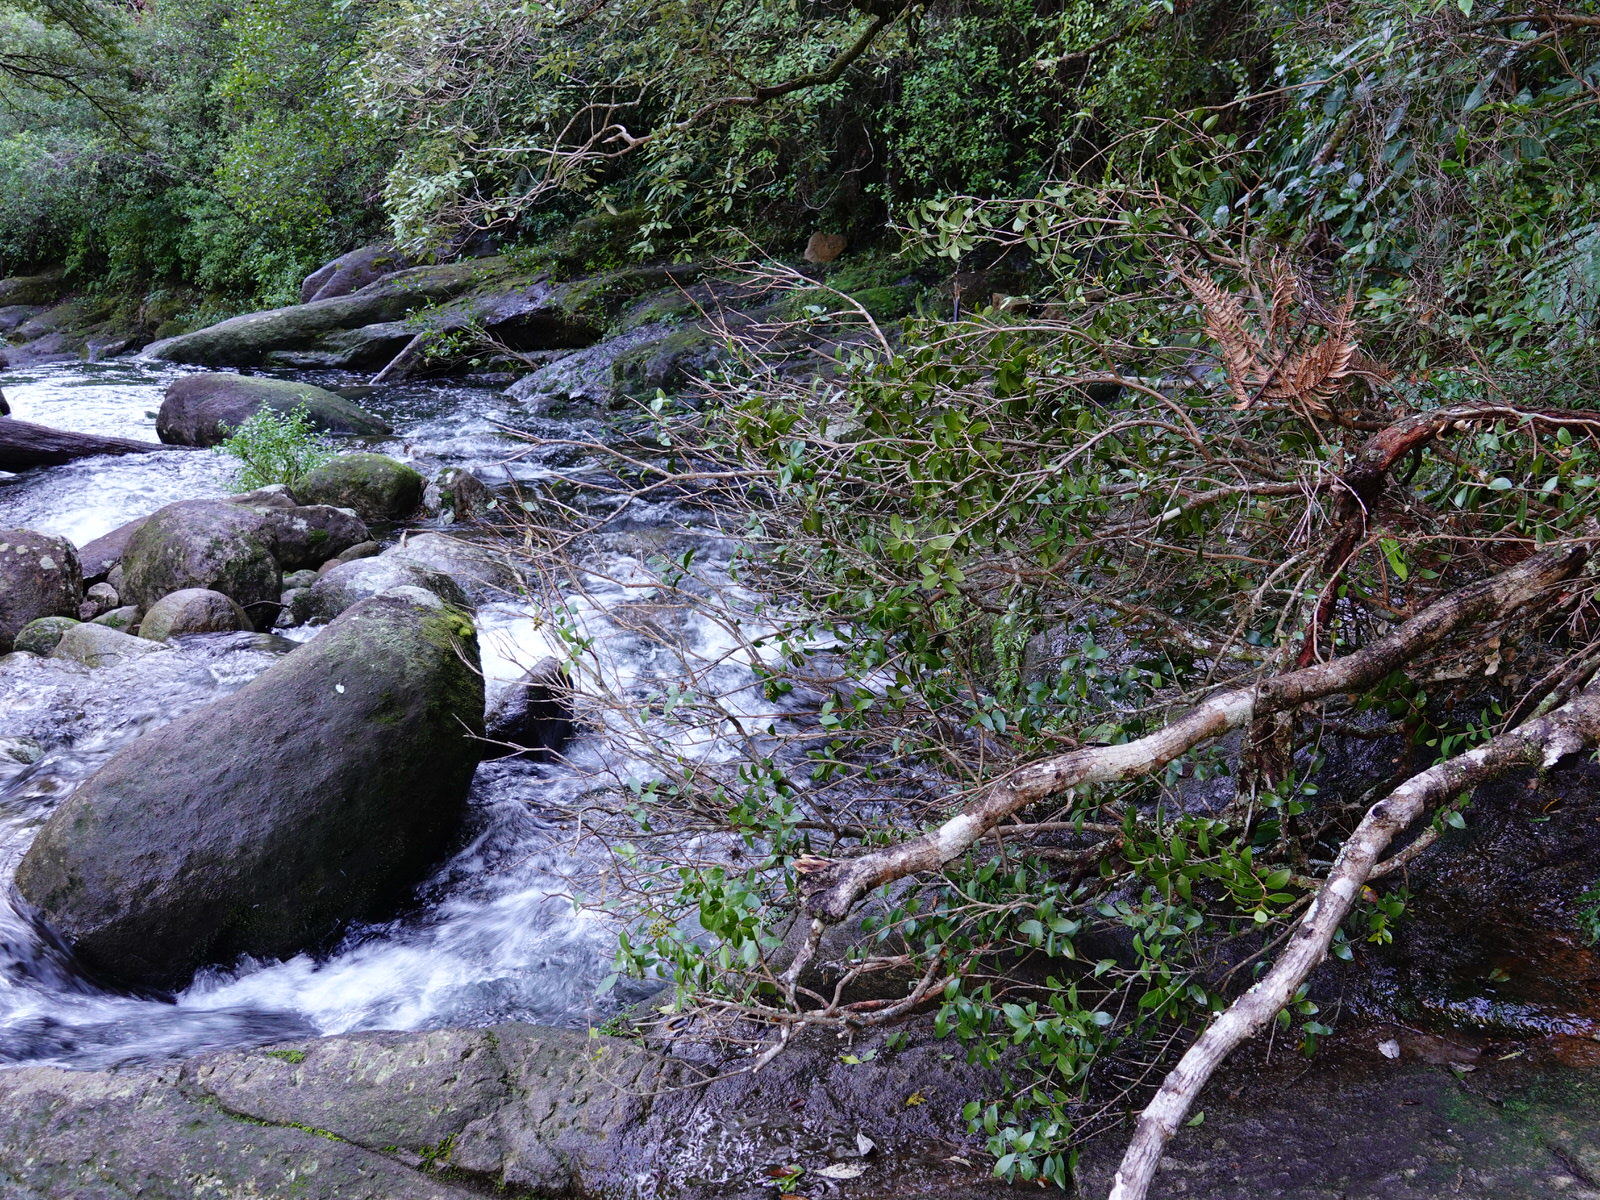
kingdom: Plantae
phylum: Tracheophyta
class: Magnoliopsida
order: Myrtales
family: Myrtaceae
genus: Metrosideros
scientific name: Metrosideros fulgens
